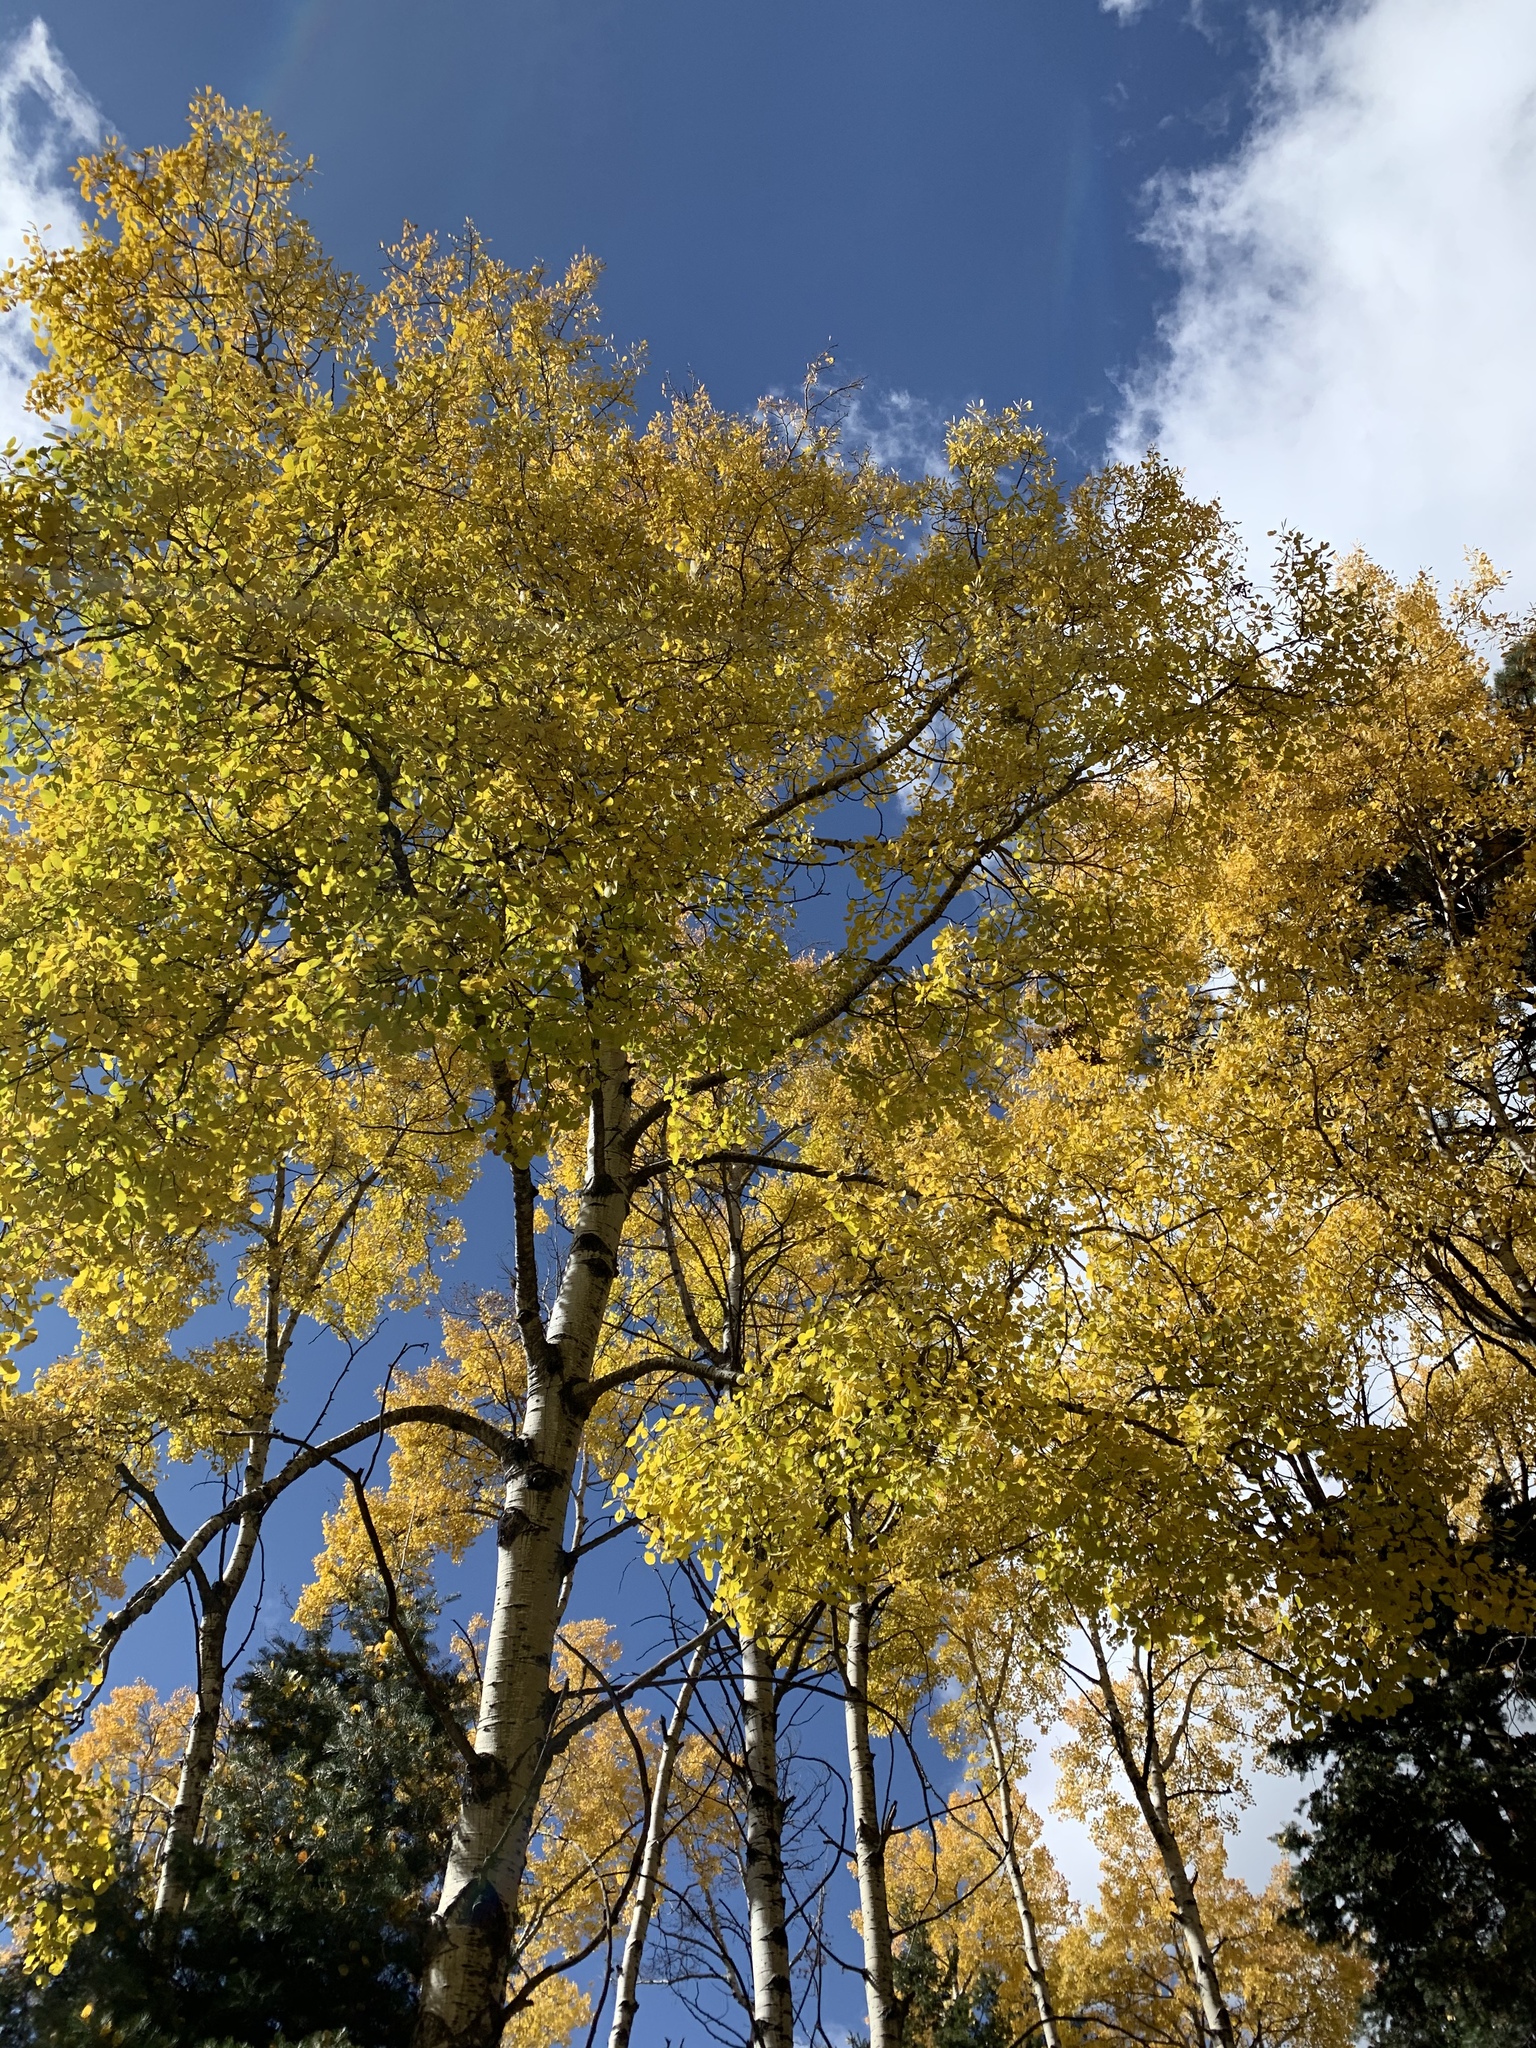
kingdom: Plantae
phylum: Tracheophyta
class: Magnoliopsida
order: Malpighiales
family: Salicaceae
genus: Populus
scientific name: Populus tremuloides
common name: Quaking aspen
